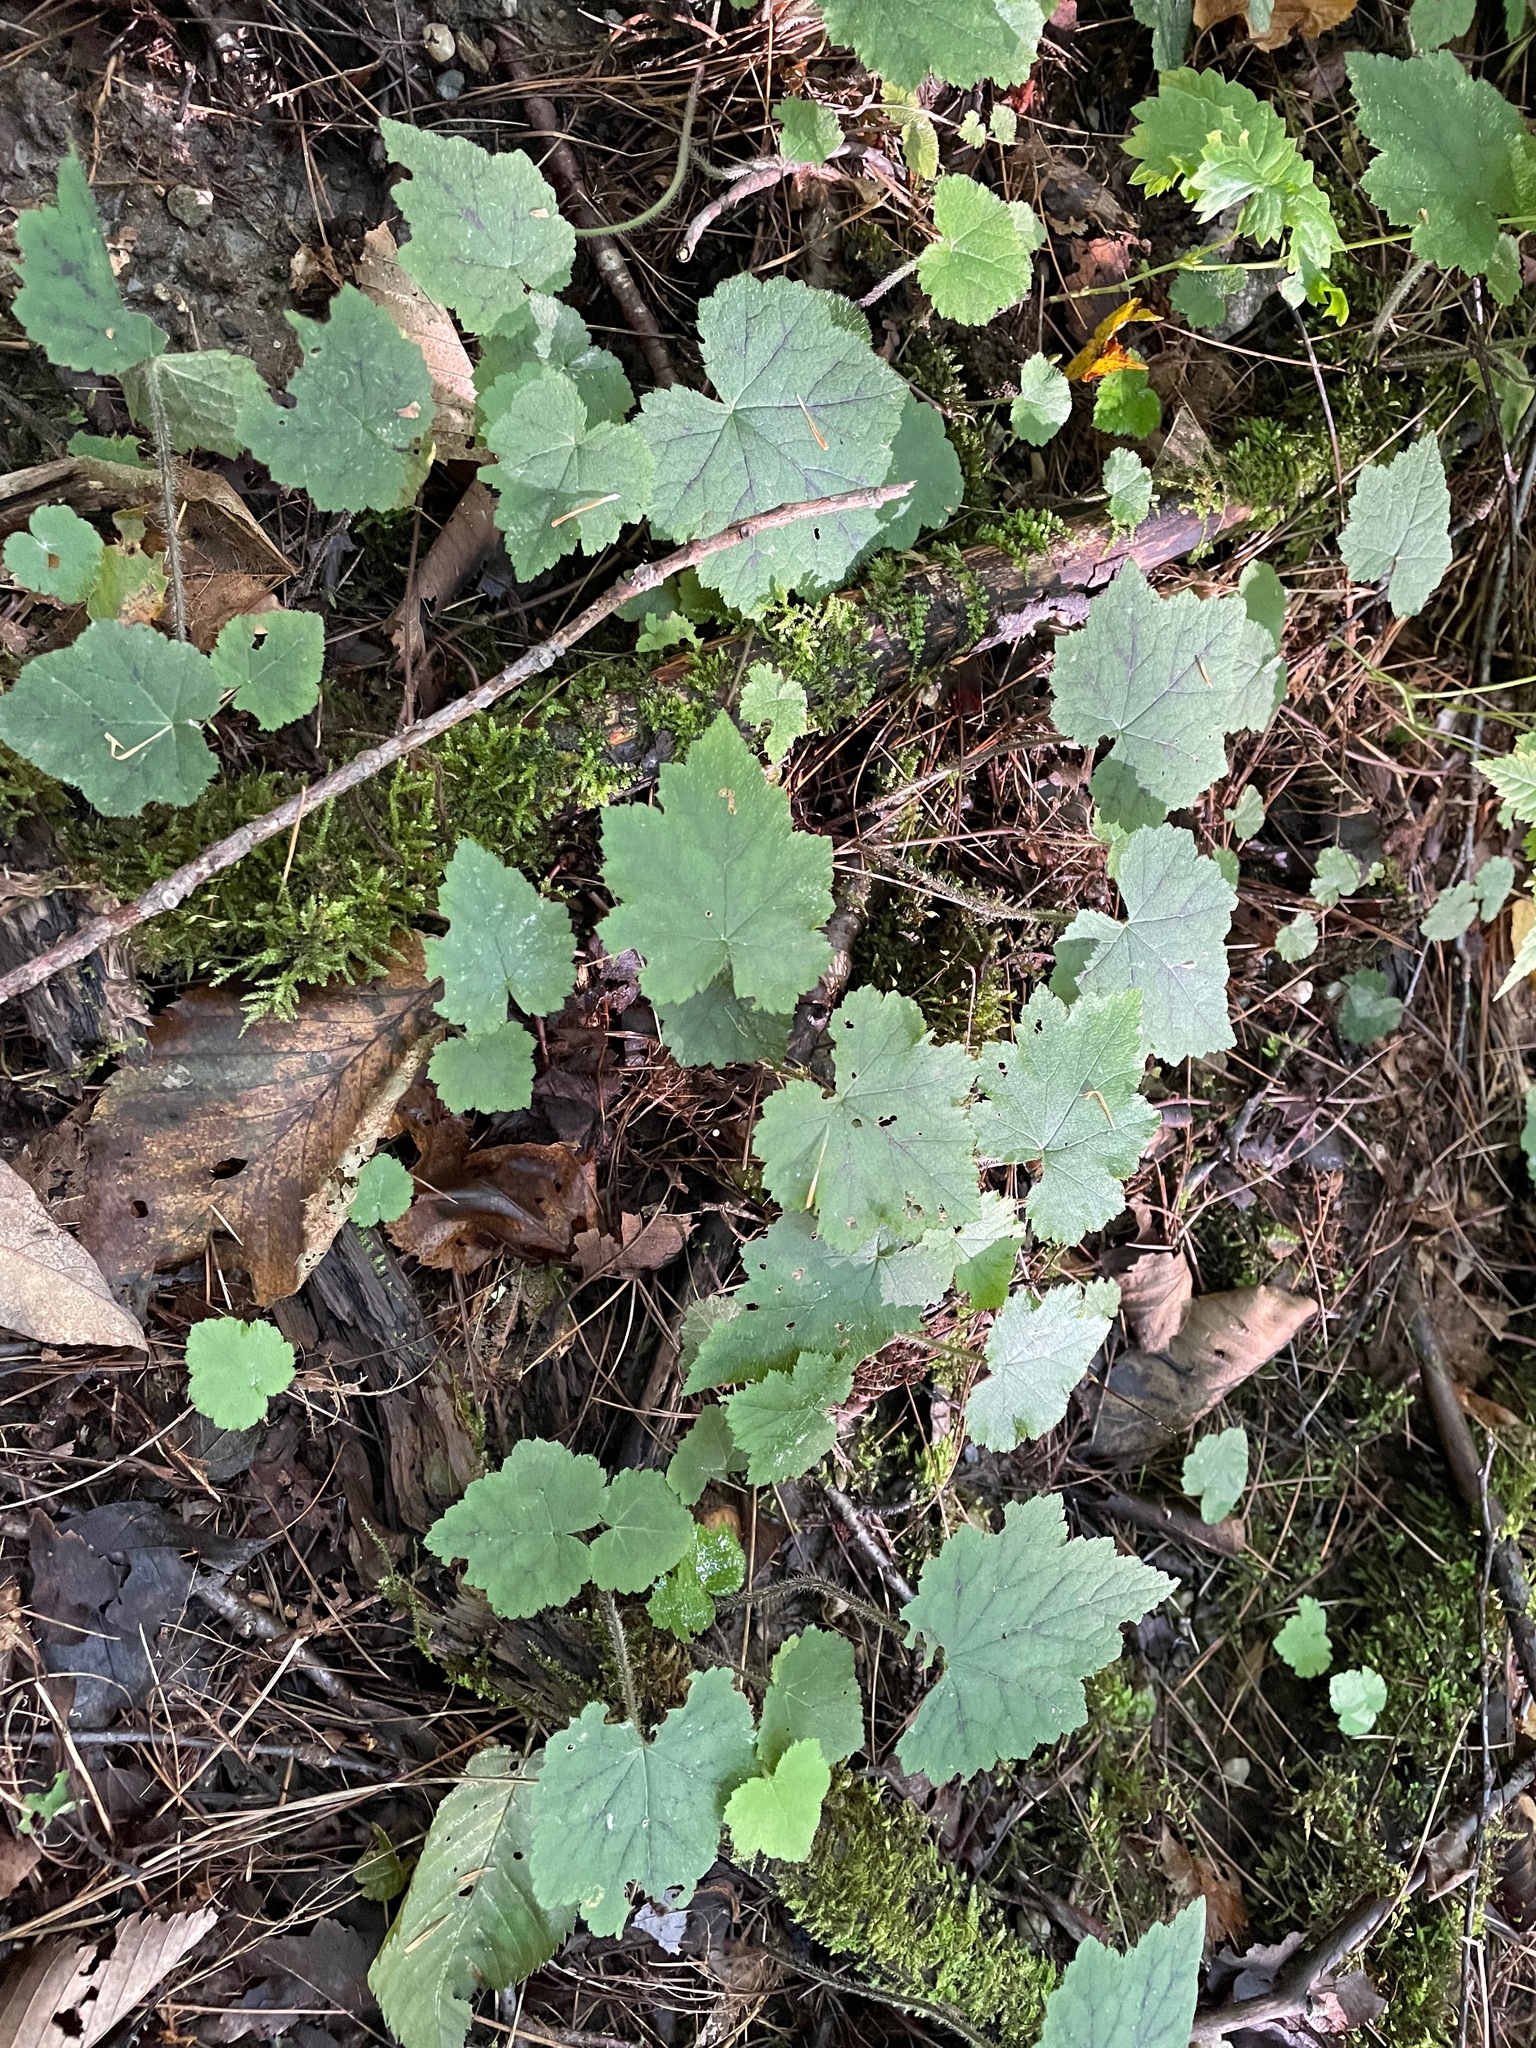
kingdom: Plantae
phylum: Tracheophyta
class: Magnoliopsida
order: Saxifragales
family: Saxifragaceae
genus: Tiarella
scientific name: Tiarella stolonifera
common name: Stoloniferous foamflower
